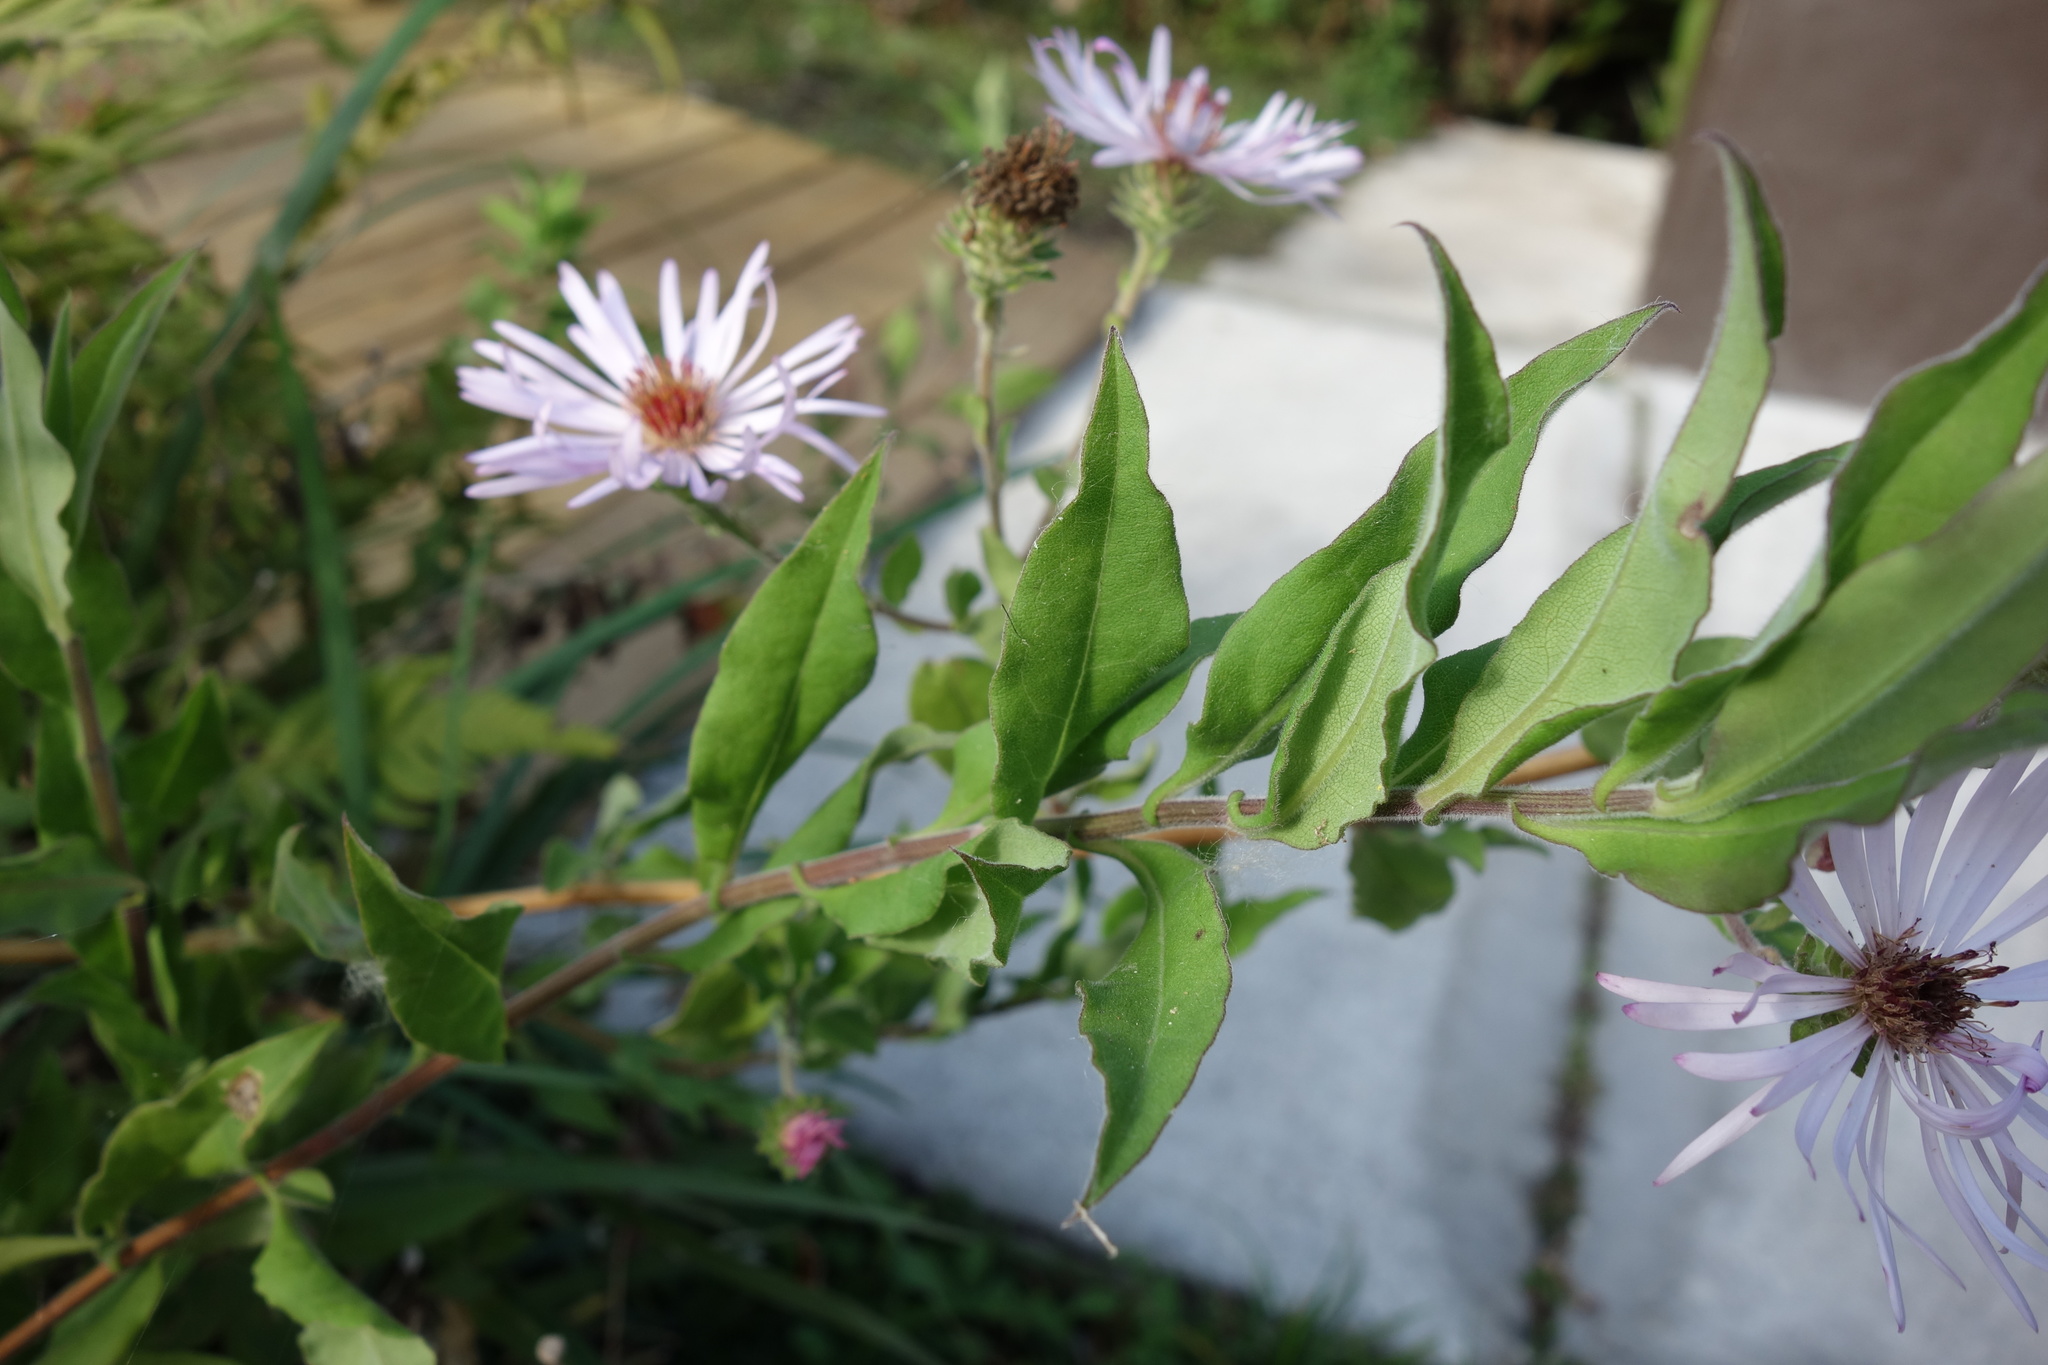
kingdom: Plantae
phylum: Tracheophyta
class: Magnoliopsida
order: Asterales
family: Asteraceae
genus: Ampelaster
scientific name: Ampelaster carolinianus
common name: Climbing aster
